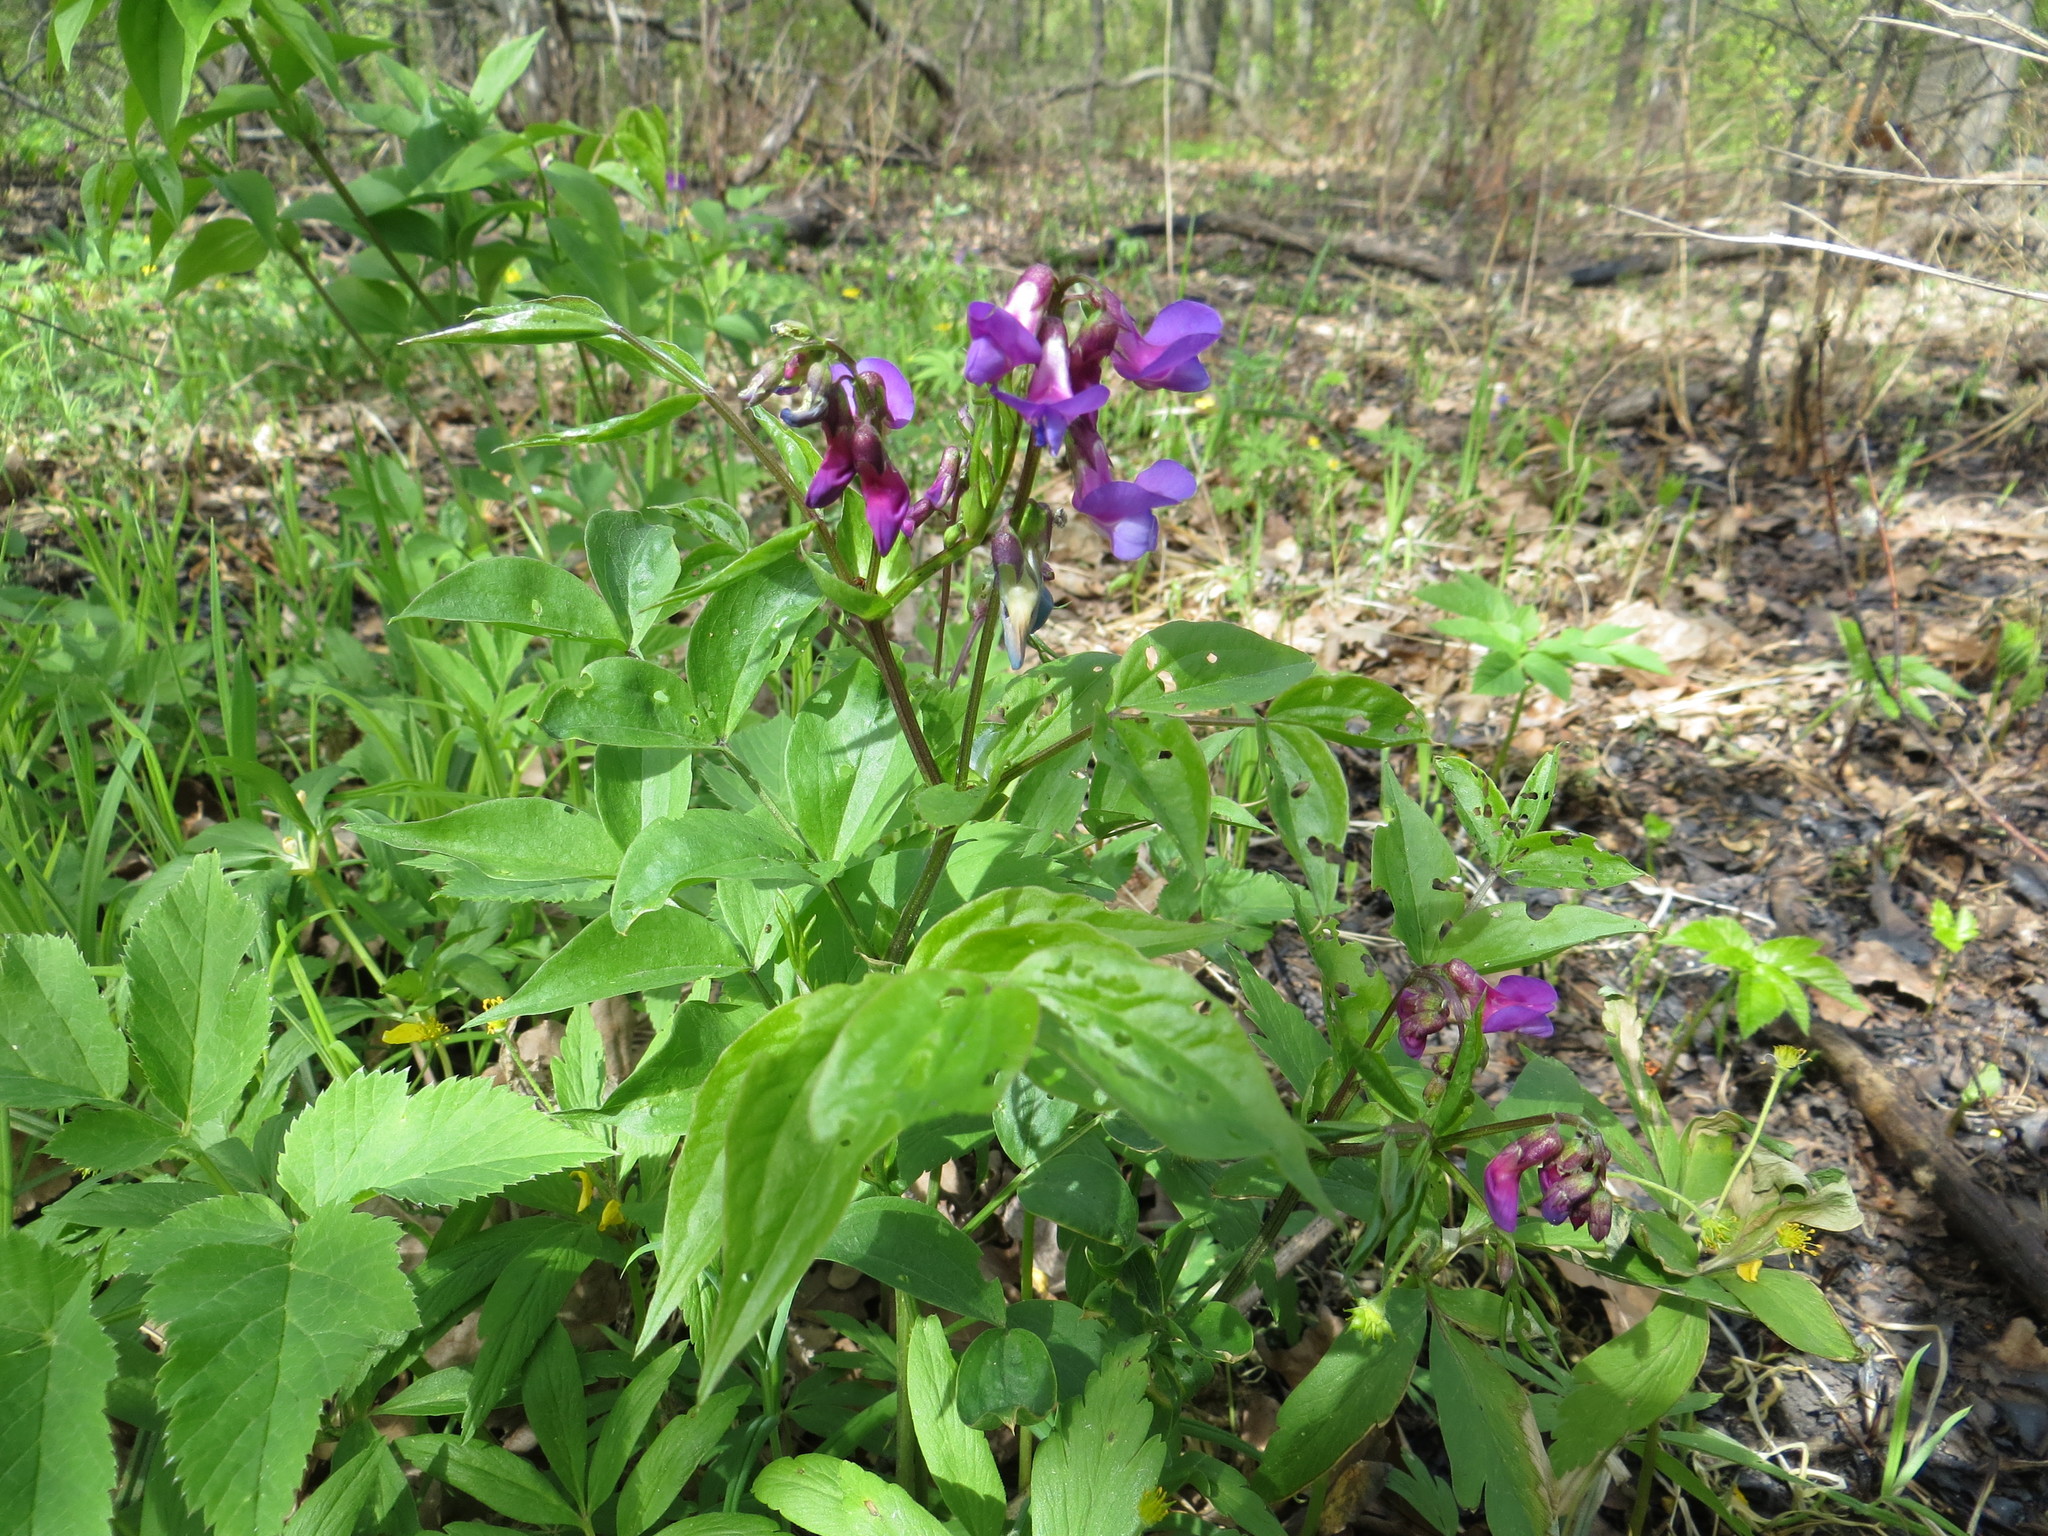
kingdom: Plantae
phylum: Tracheophyta
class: Magnoliopsida
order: Fabales
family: Fabaceae
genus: Lathyrus
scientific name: Lathyrus vernus
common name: Spring pea
